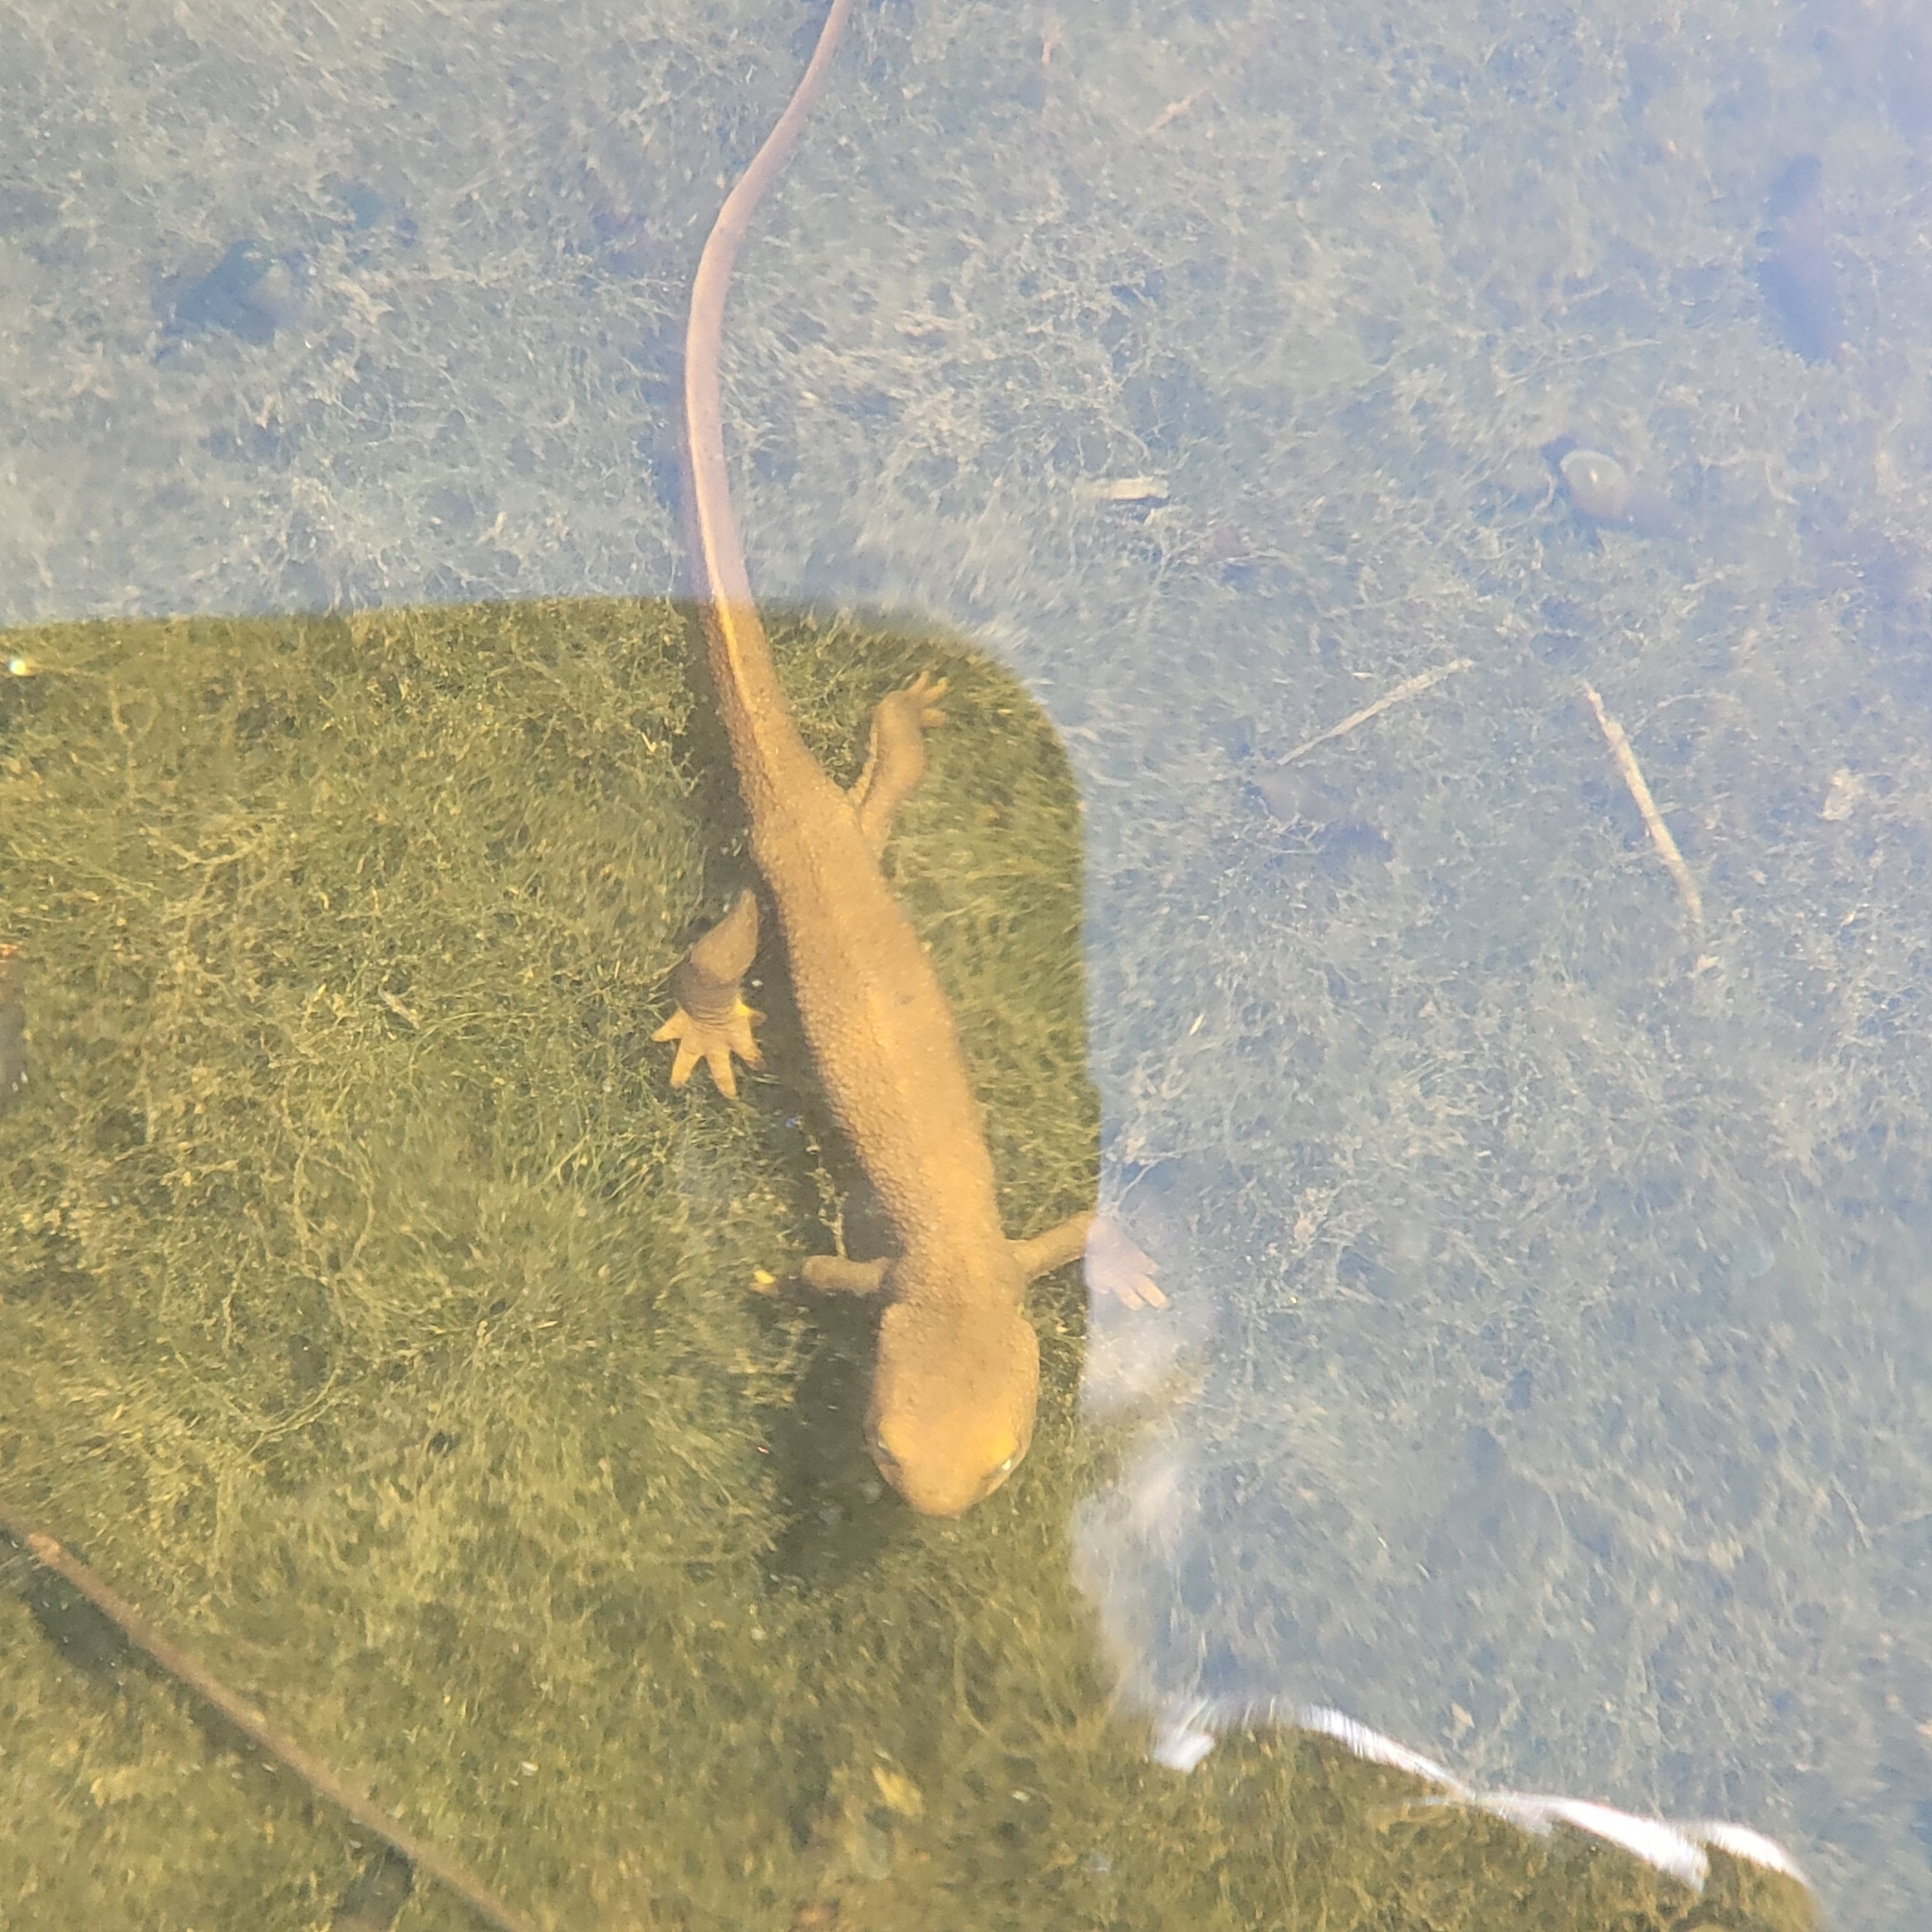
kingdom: Animalia
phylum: Chordata
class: Amphibia
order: Caudata
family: Salamandridae
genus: Taricha
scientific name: Taricha granulosa
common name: Roughskin newt
